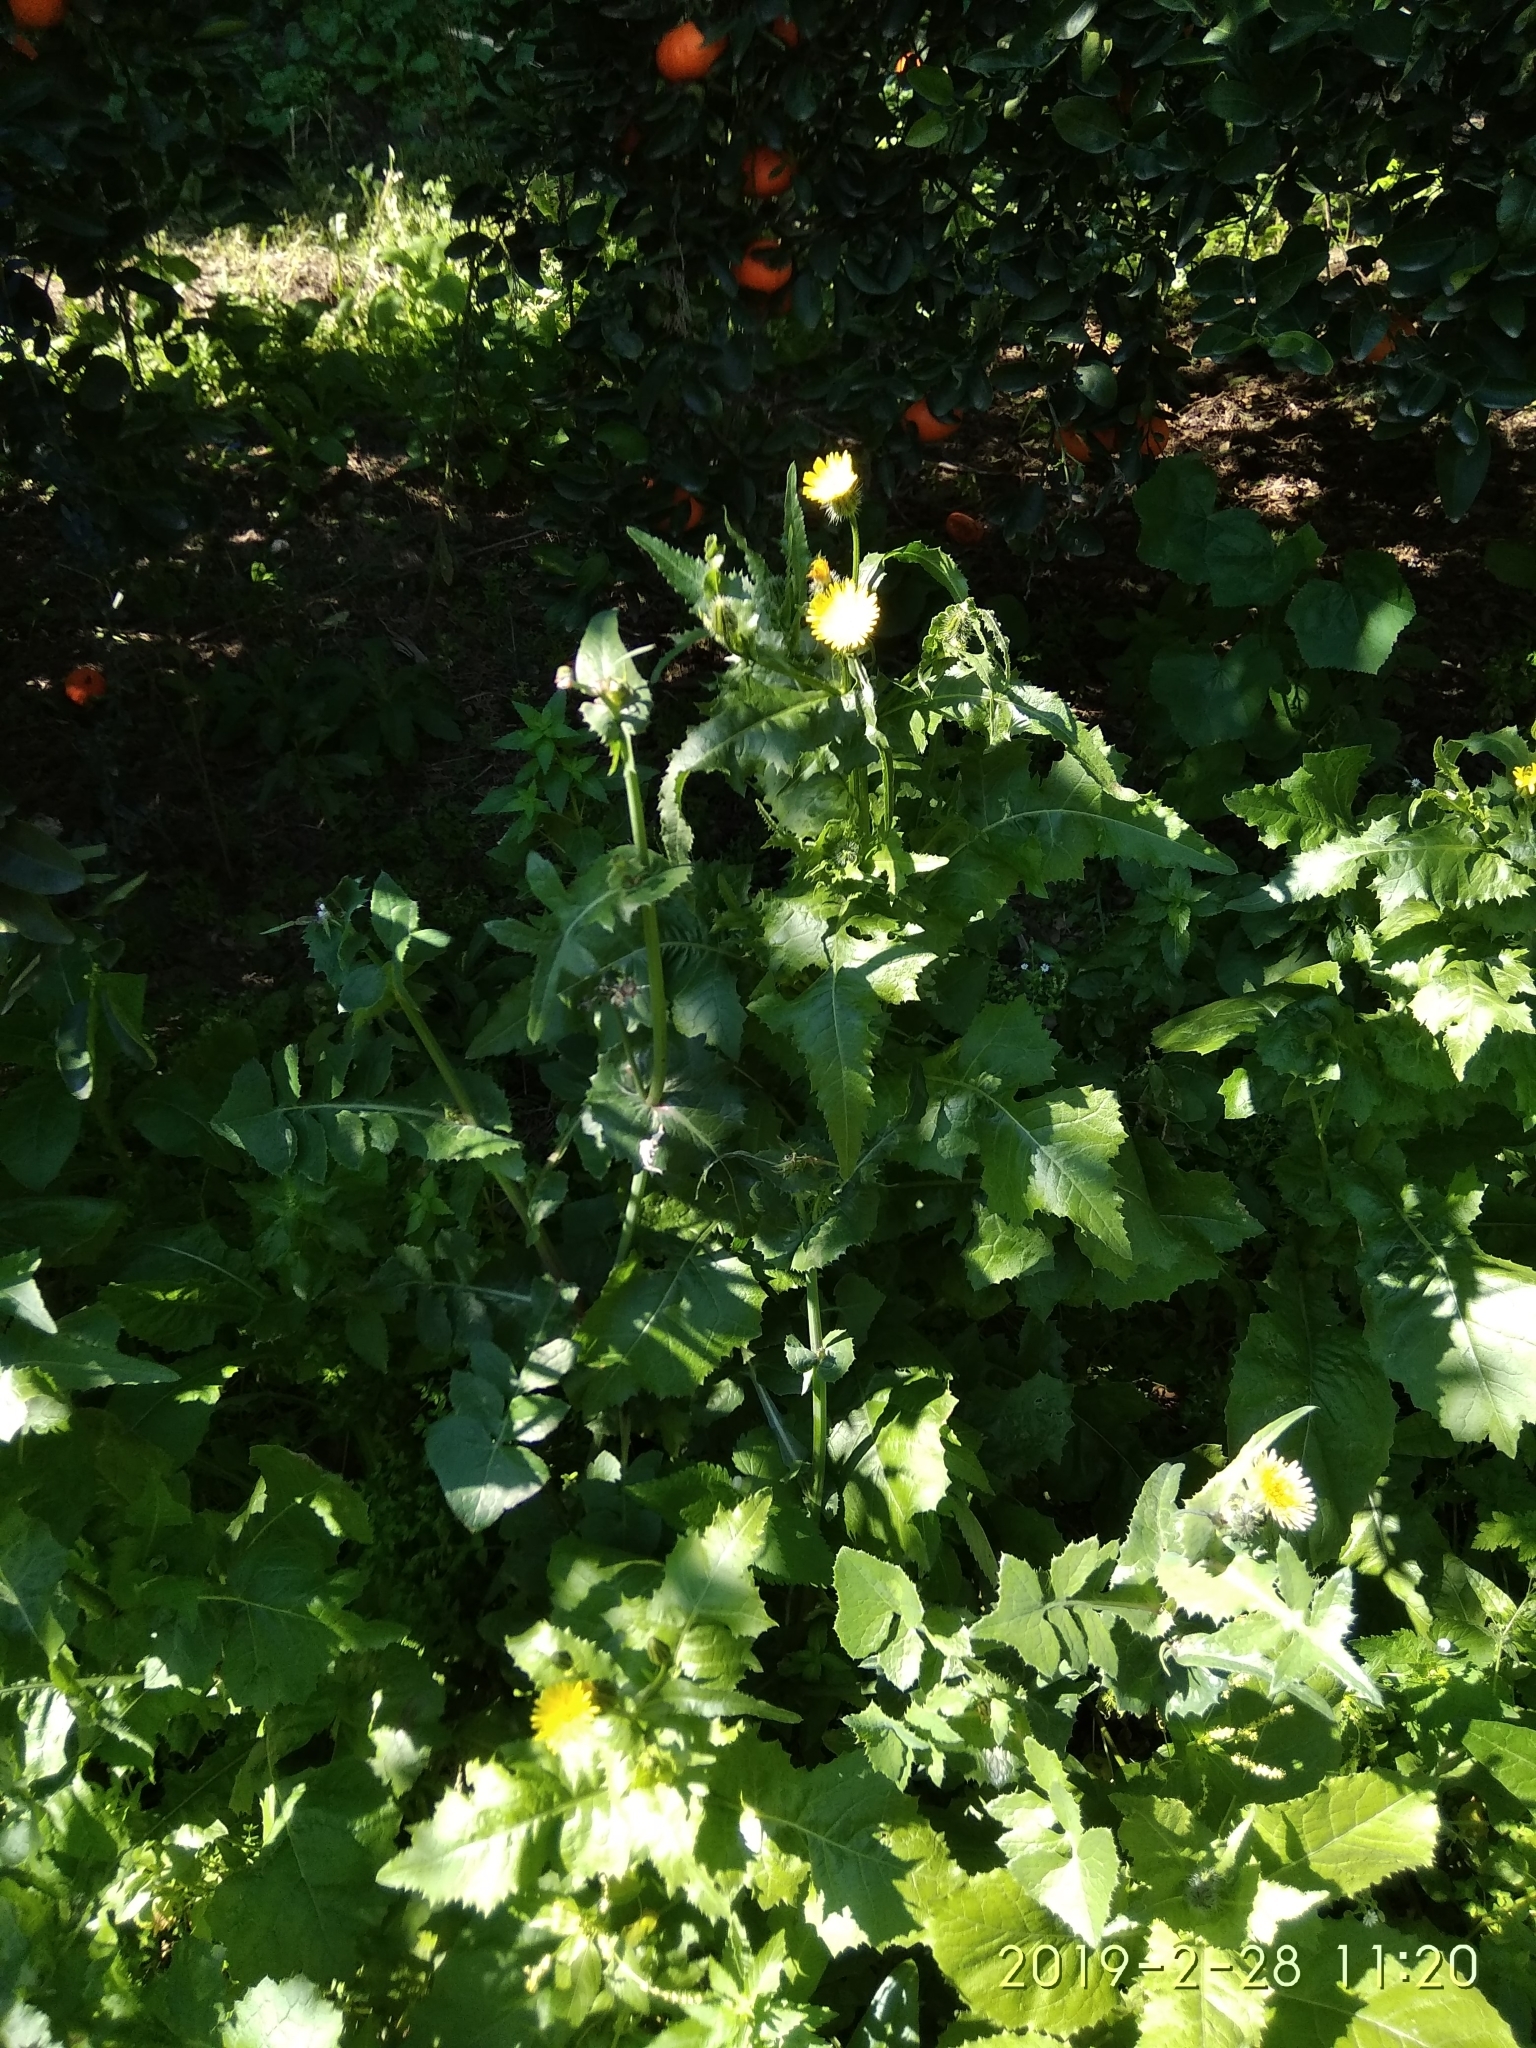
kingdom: Plantae
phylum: Tracheophyta
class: Magnoliopsida
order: Asterales
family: Asteraceae
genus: Sonchus
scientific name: Sonchus oleraceus
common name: Common sowthistle
